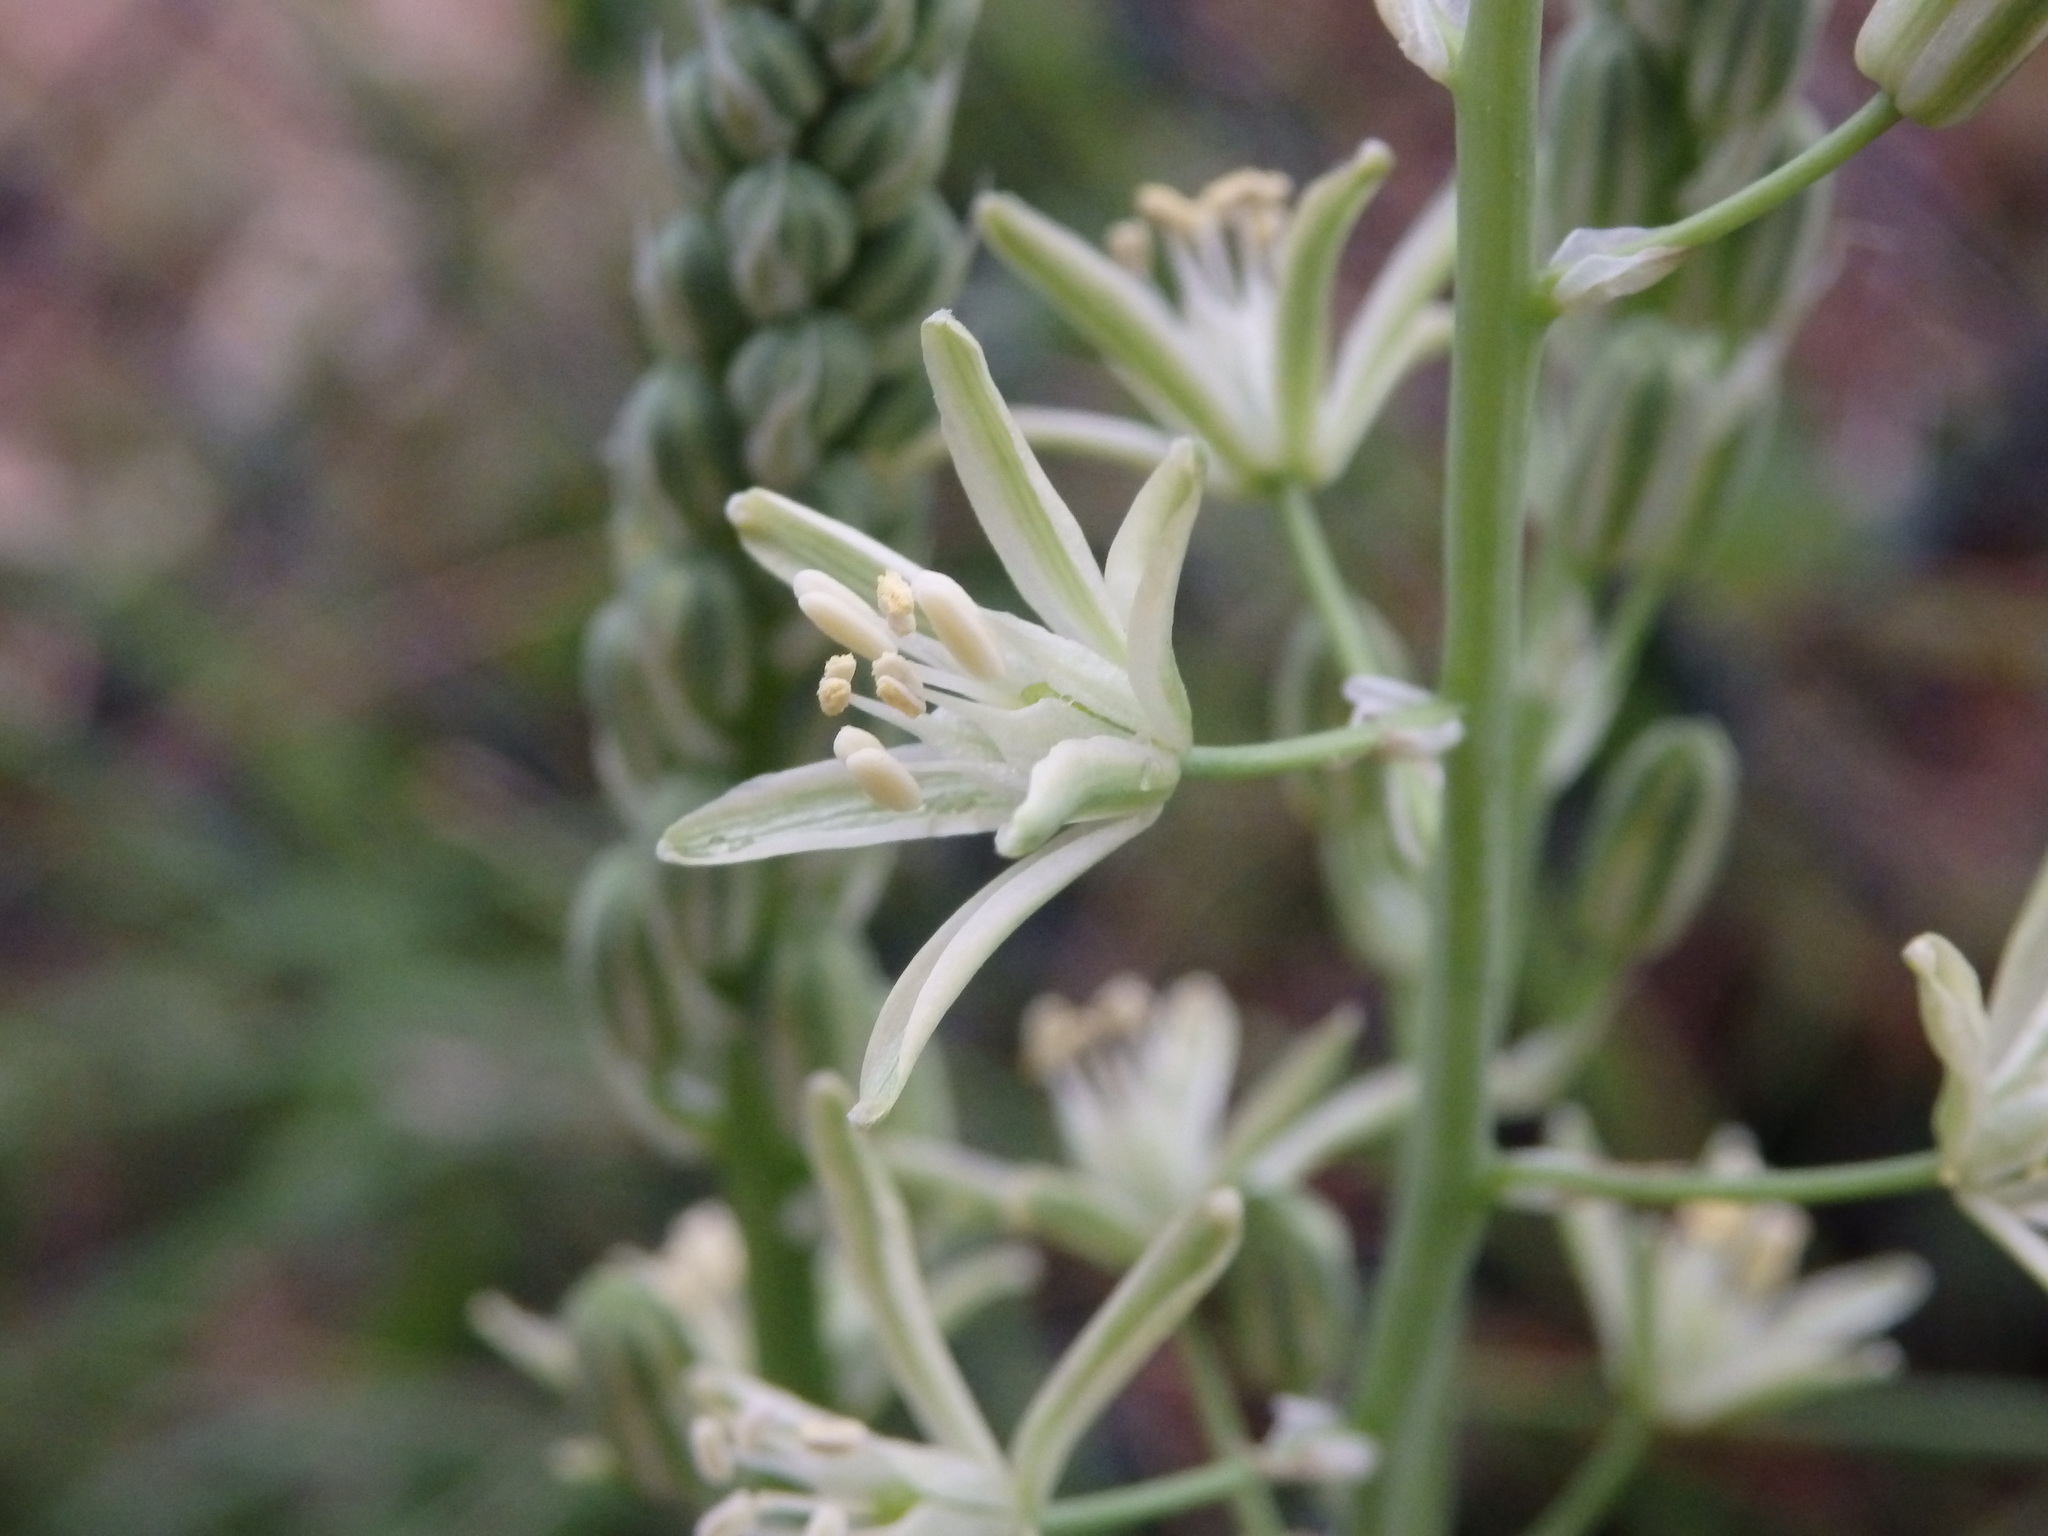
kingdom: Plantae
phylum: Tracheophyta
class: Liliopsida
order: Asparagales
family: Asparagaceae
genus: Ornithogalum
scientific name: Ornithogalum narbonense
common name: Bath-asparagus
